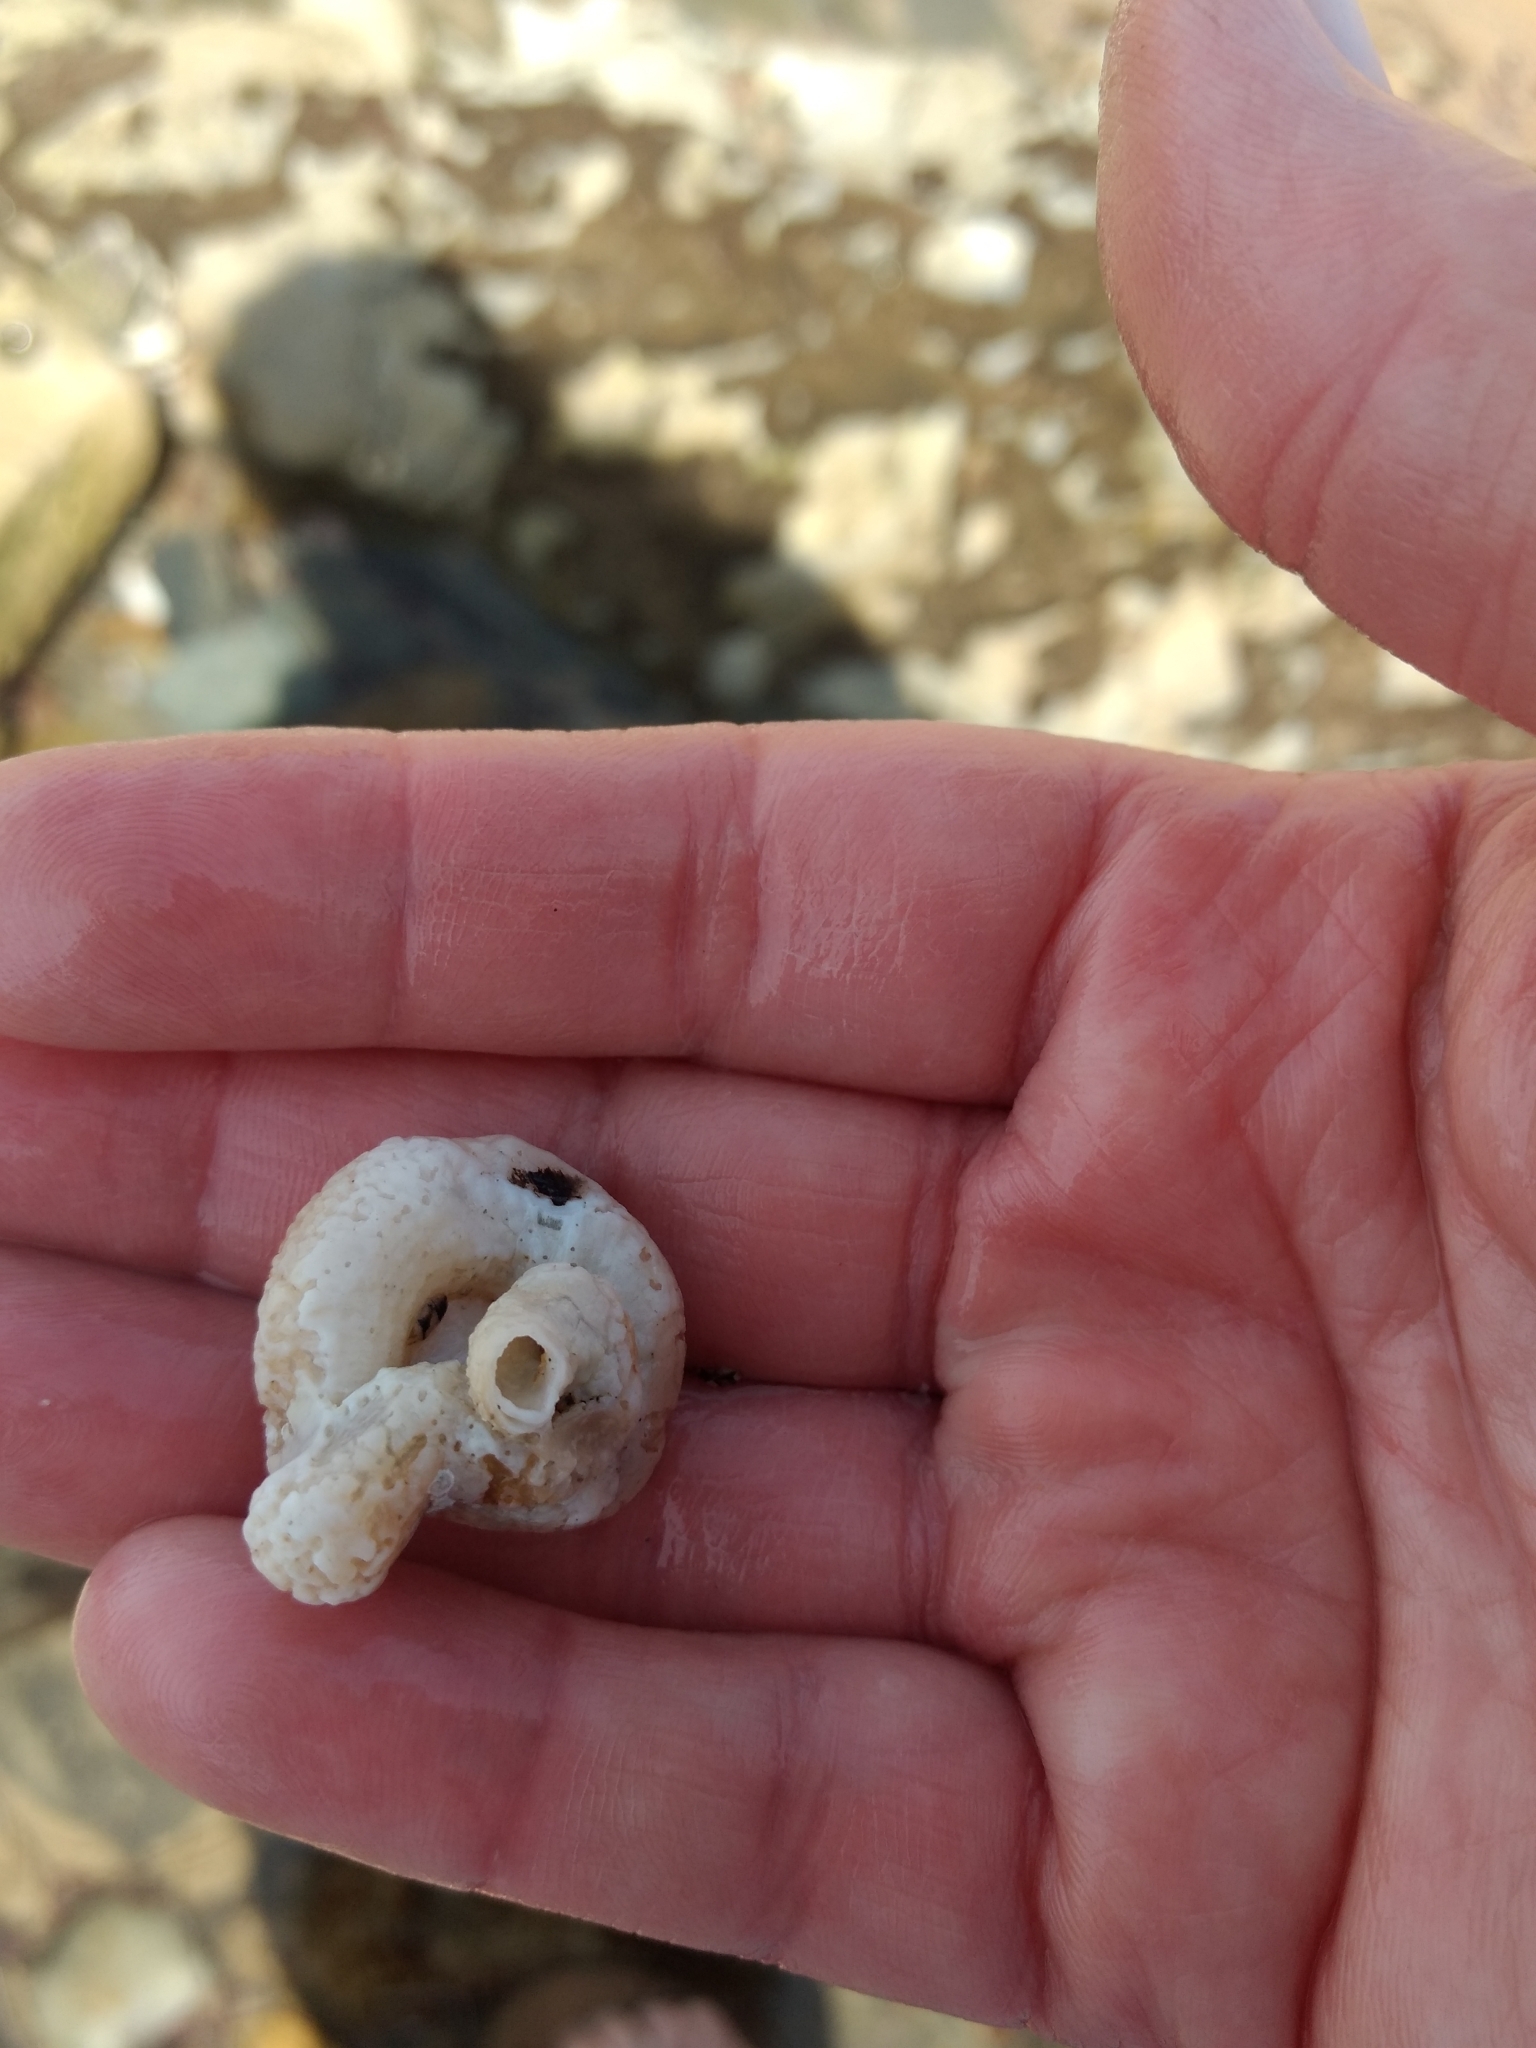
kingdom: Animalia
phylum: Mollusca
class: Gastropoda
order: Littorinimorpha
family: Vermetidae
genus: Thylacodes
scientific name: Thylacodes squamigerus
